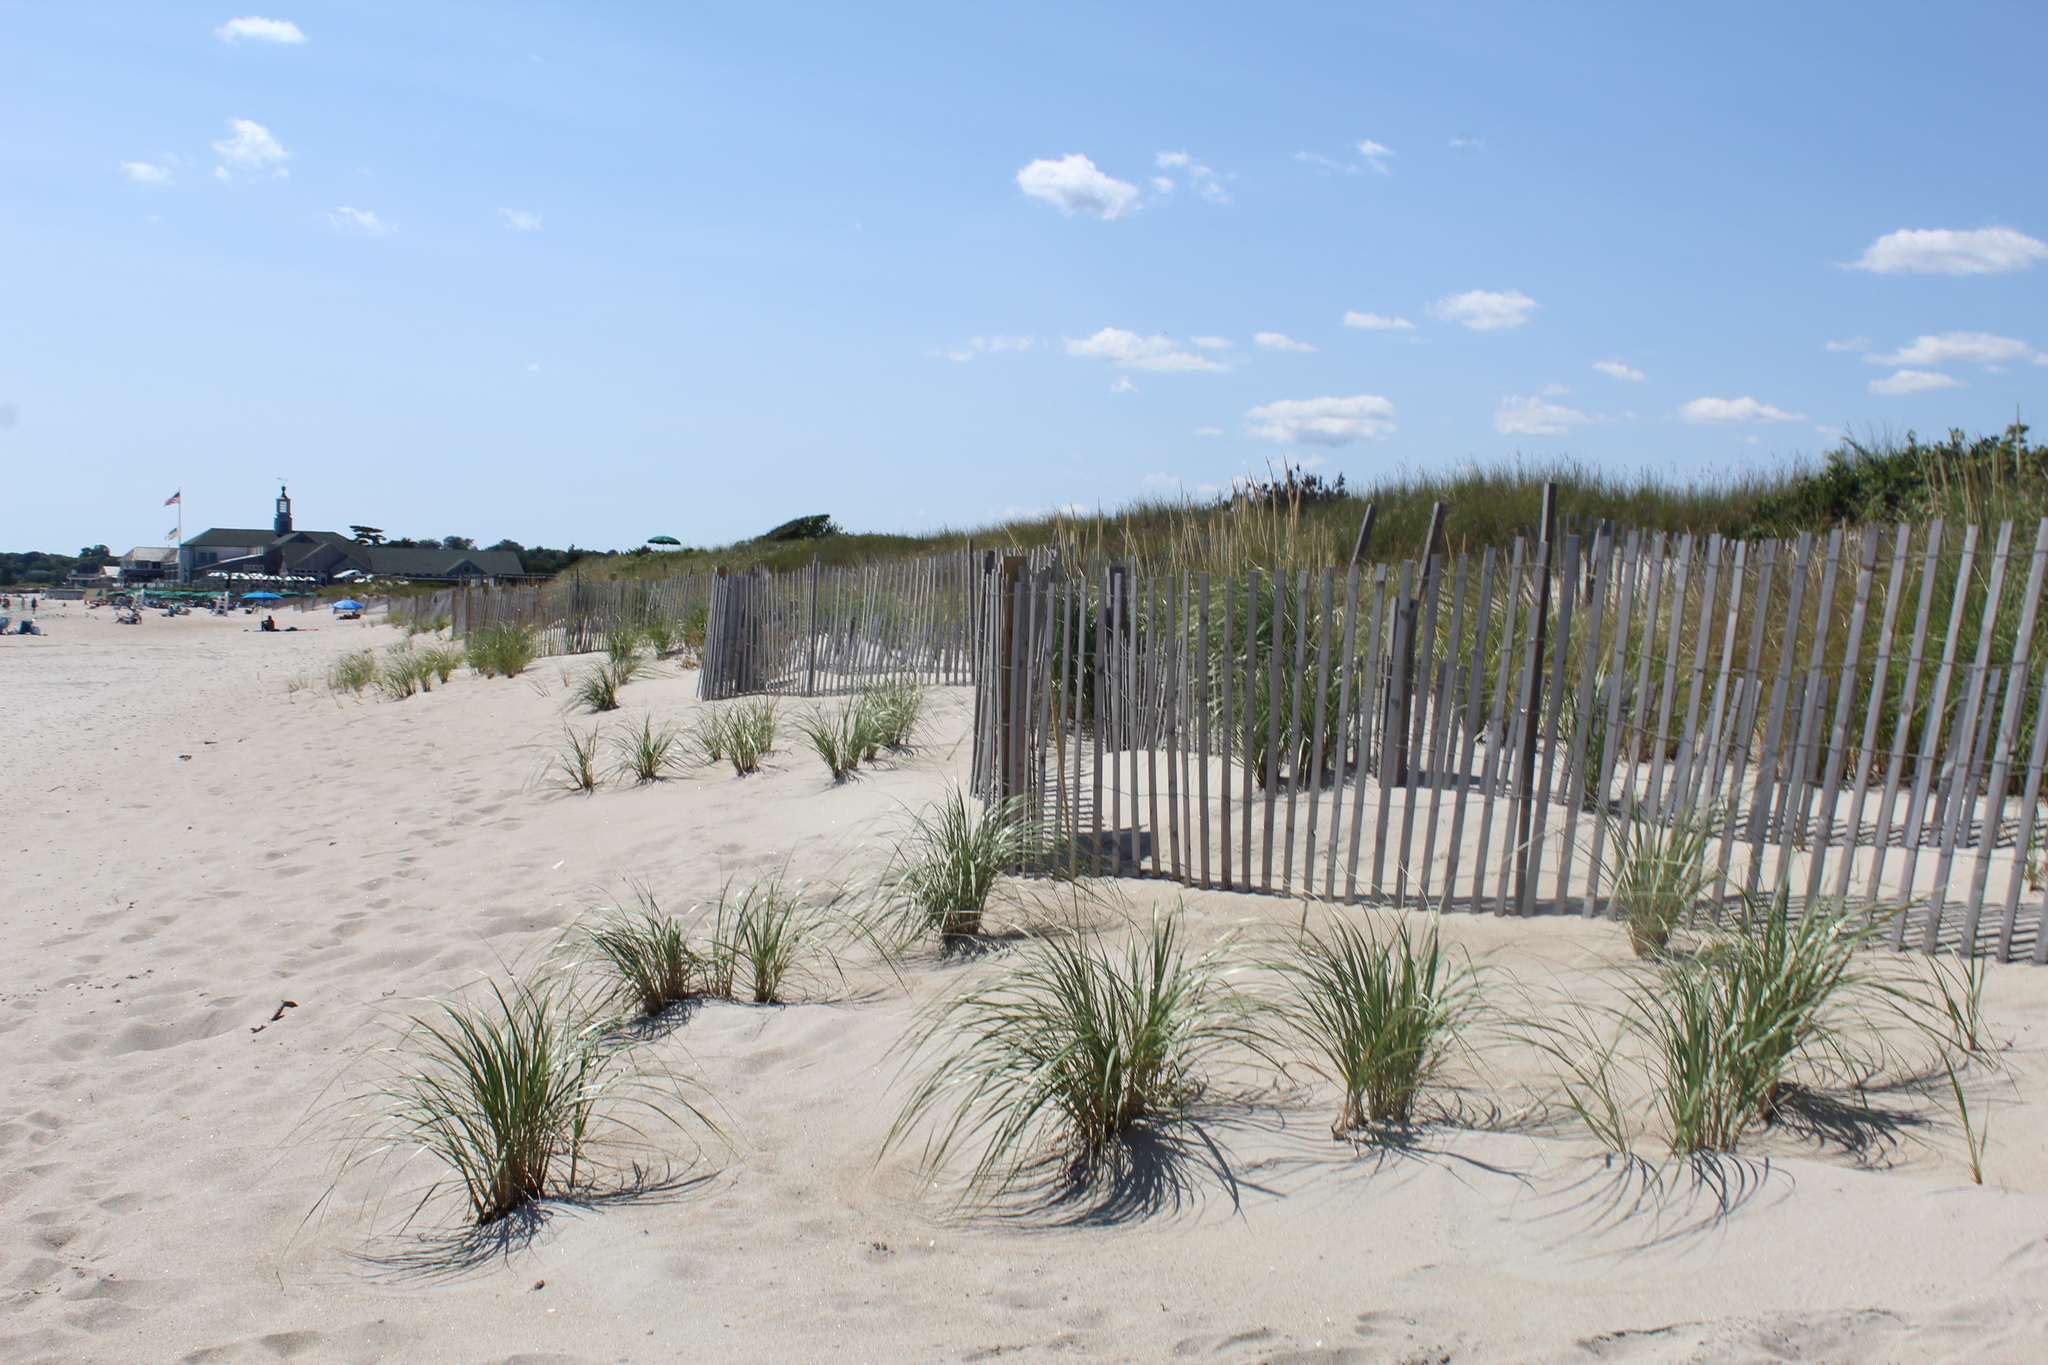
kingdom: Plantae
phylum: Tracheophyta
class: Liliopsida
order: Poales
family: Poaceae
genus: Calamagrostis
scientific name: Calamagrostis breviligulata
